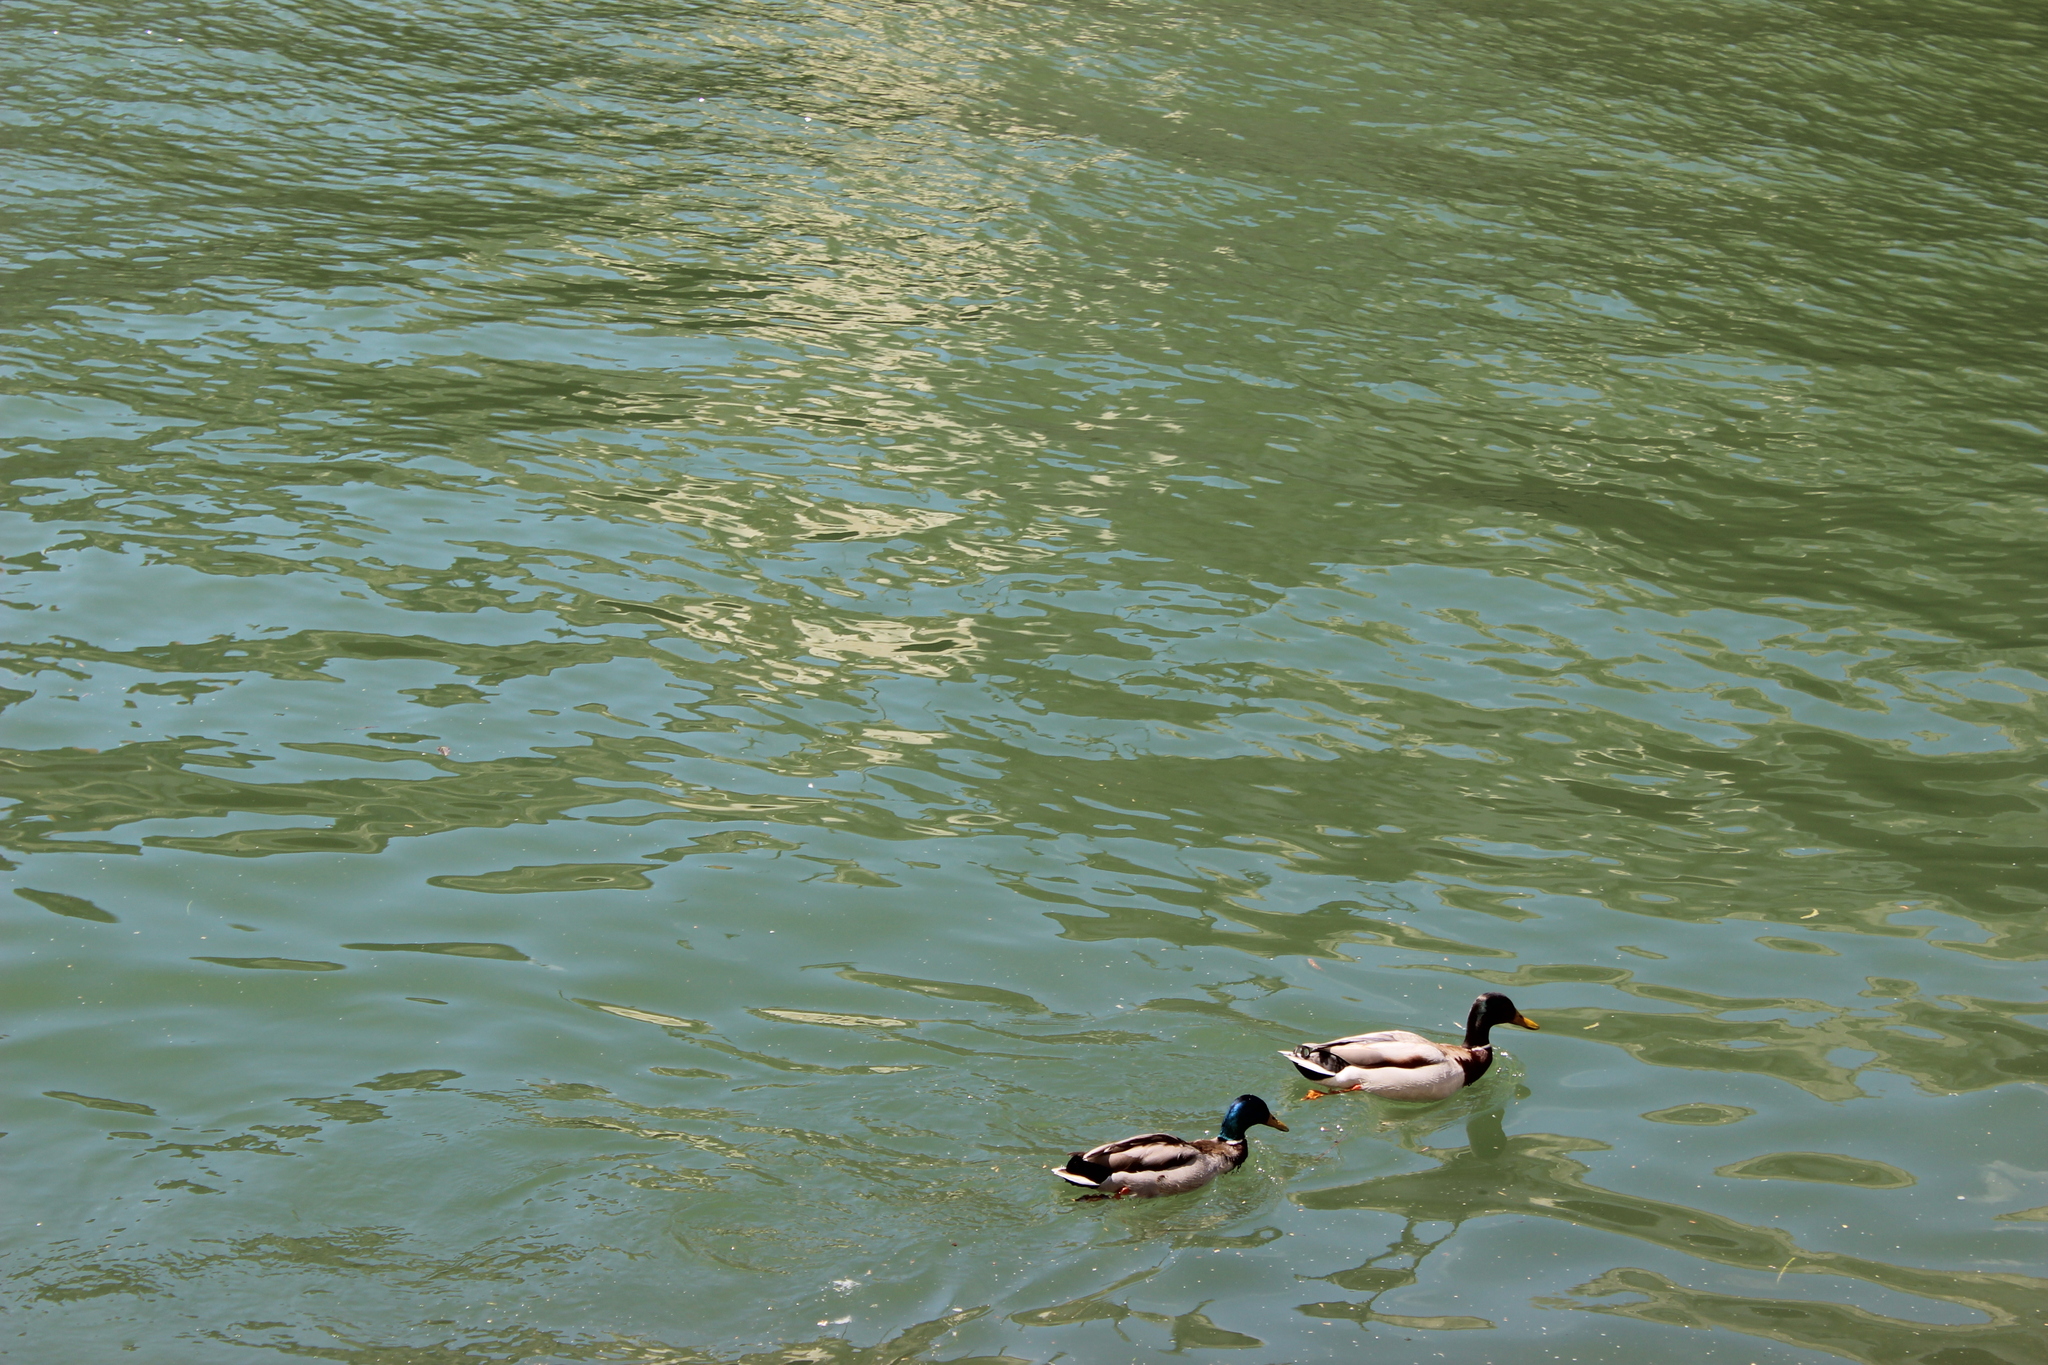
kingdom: Animalia
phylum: Chordata
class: Aves
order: Anseriformes
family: Anatidae
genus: Anas
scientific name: Anas platyrhynchos
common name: Mallard
